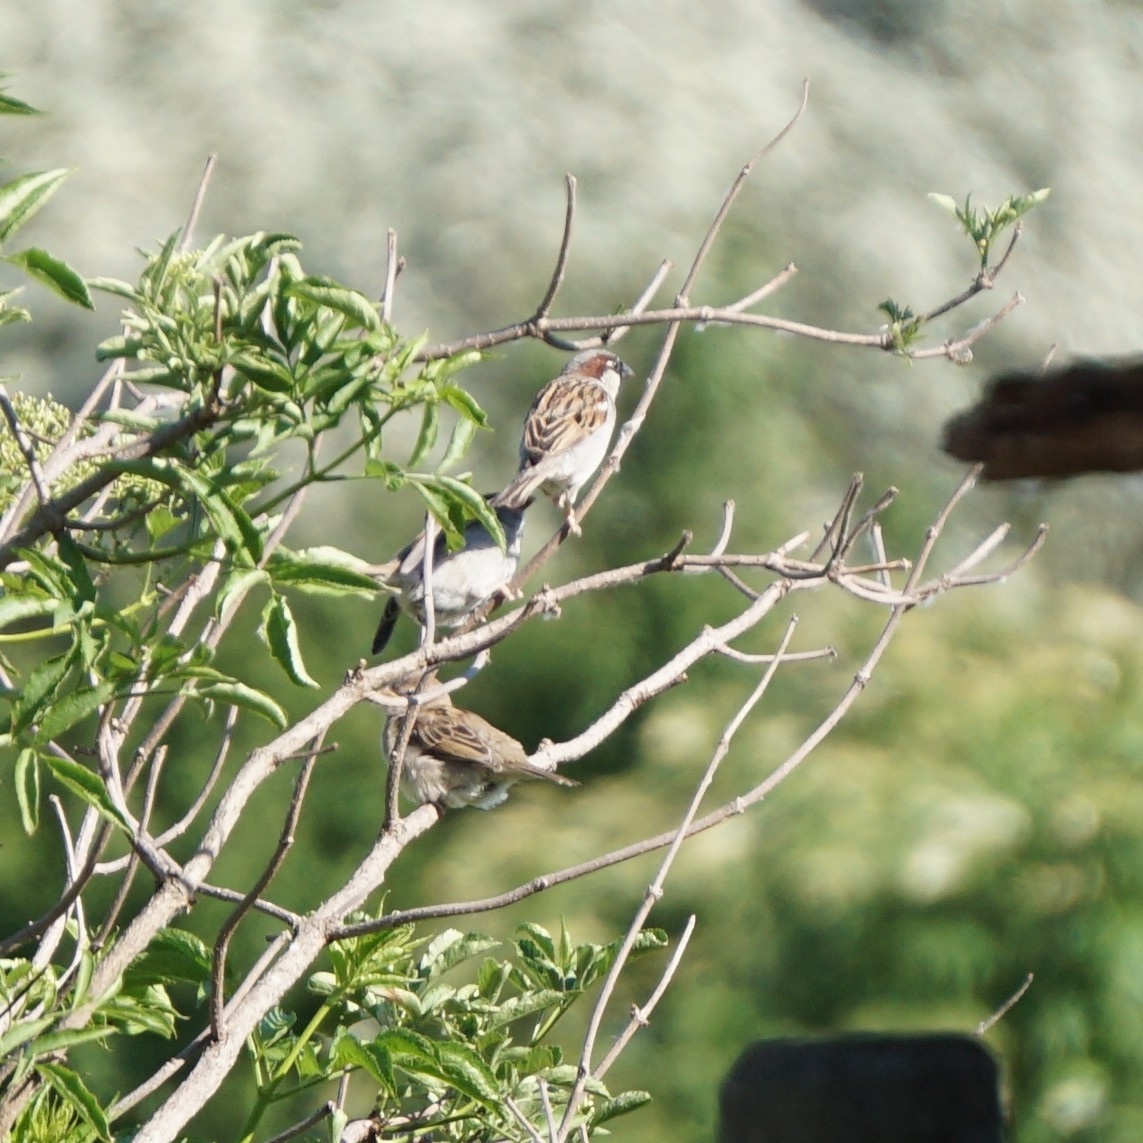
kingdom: Animalia
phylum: Chordata
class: Aves
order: Passeriformes
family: Passeridae
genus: Passer
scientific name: Passer domesticus
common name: House sparrow
